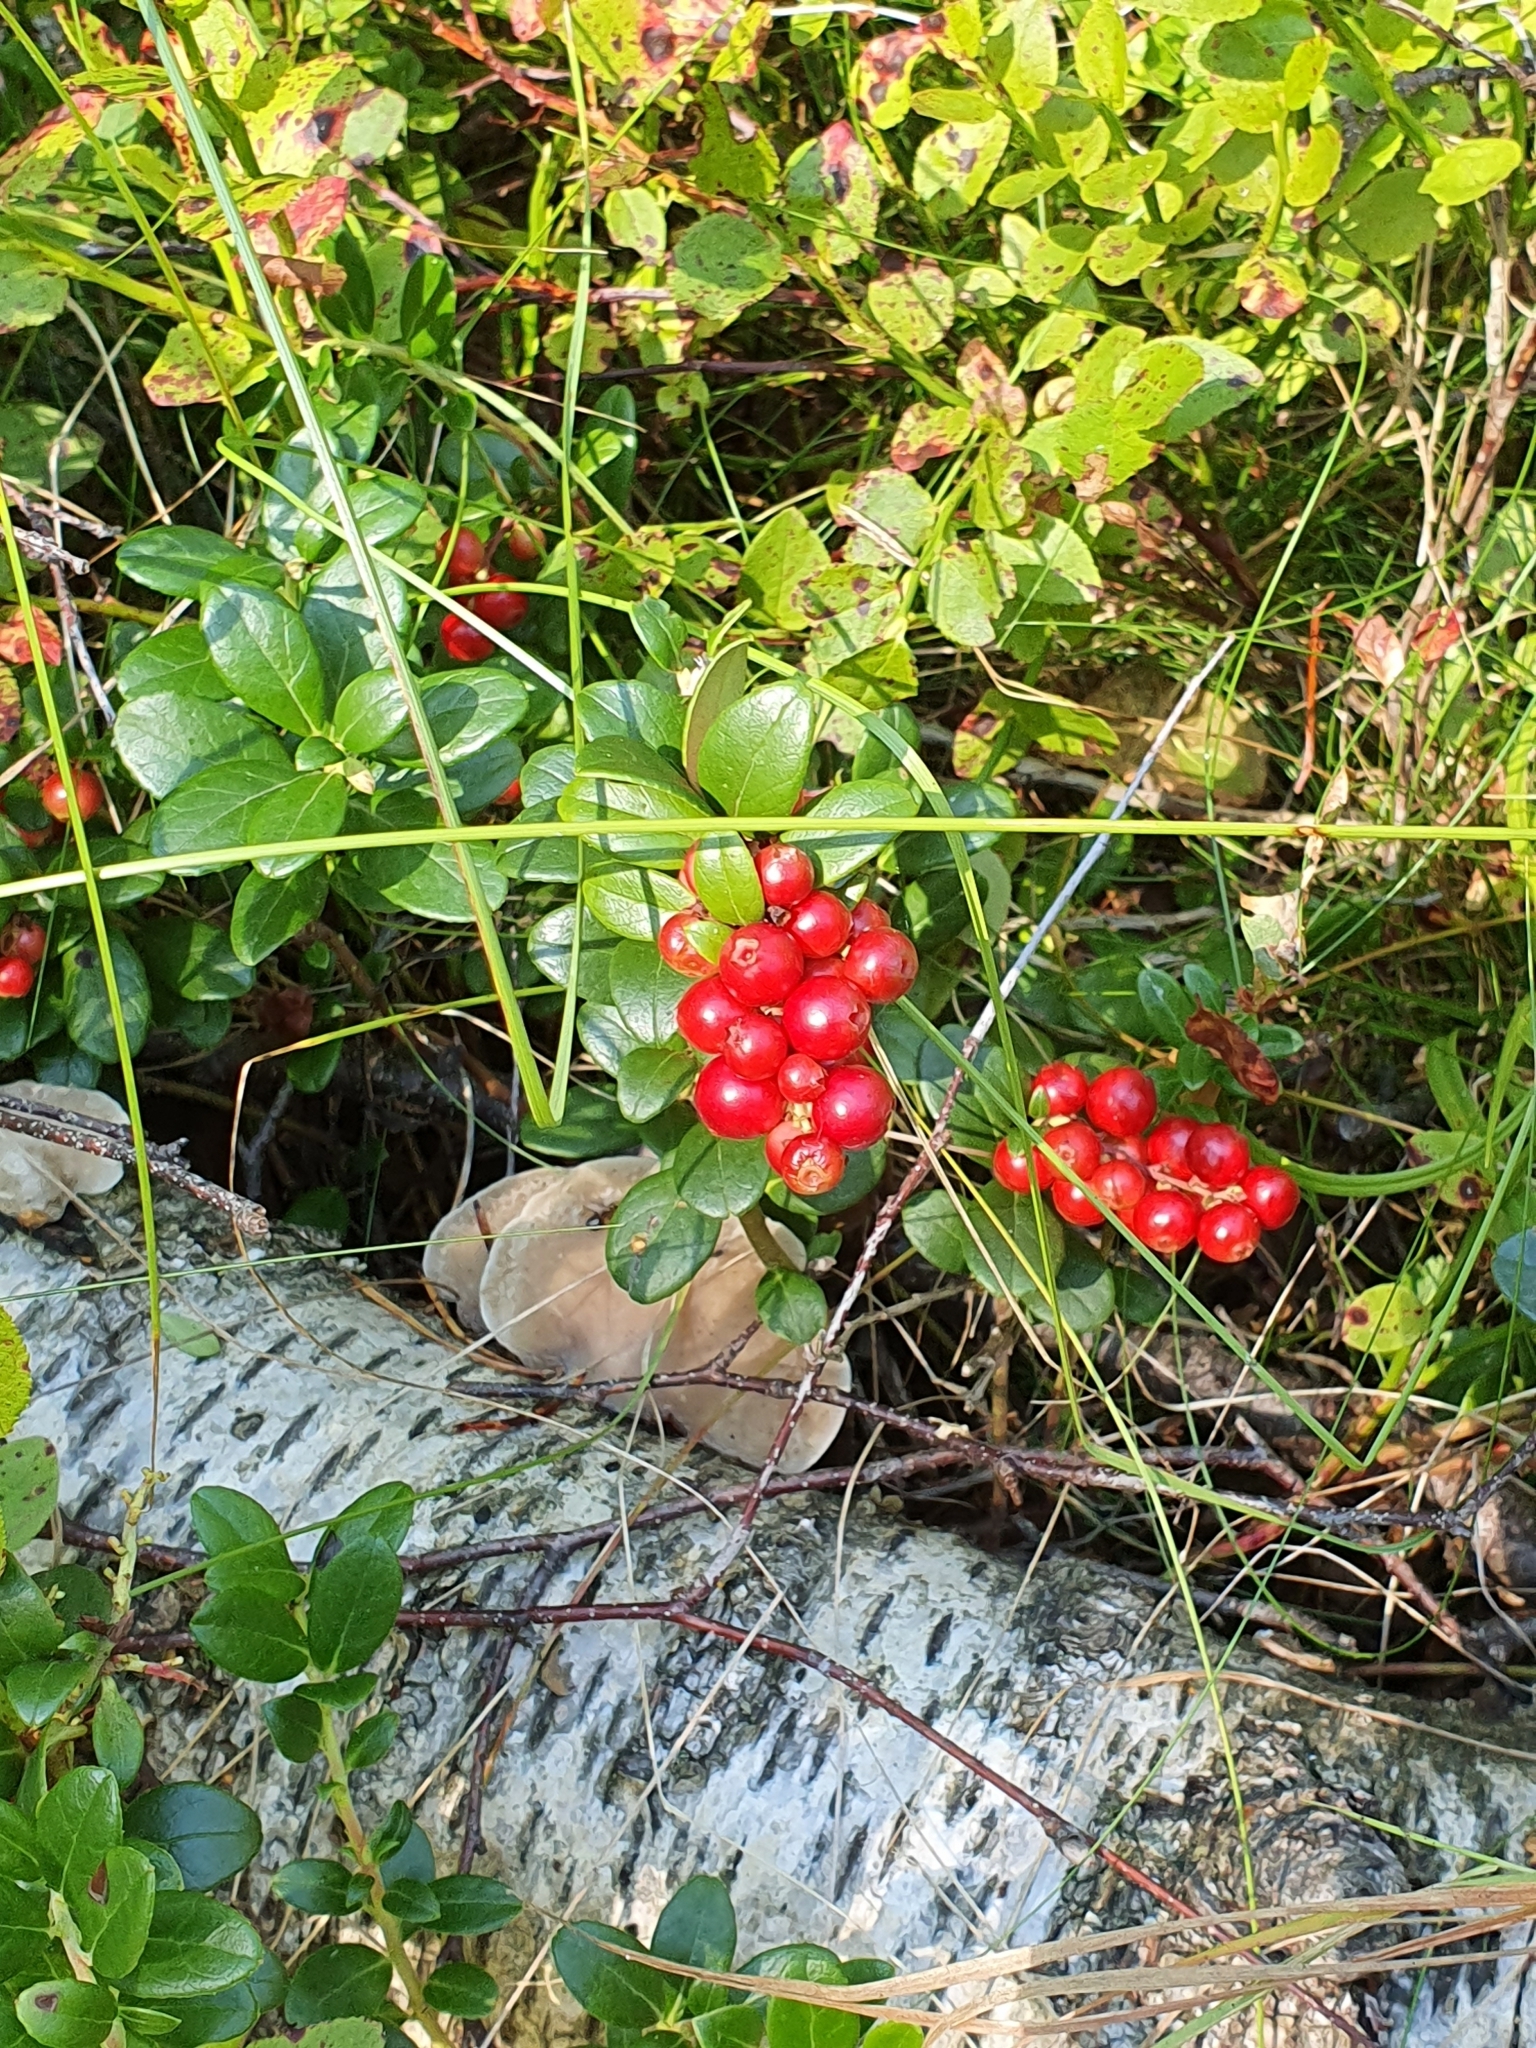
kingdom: Plantae
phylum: Tracheophyta
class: Magnoliopsida
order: Ericales
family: Ericaceae
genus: Vaccinium
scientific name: Vaccinium vitis-idaea
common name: Cowberry
